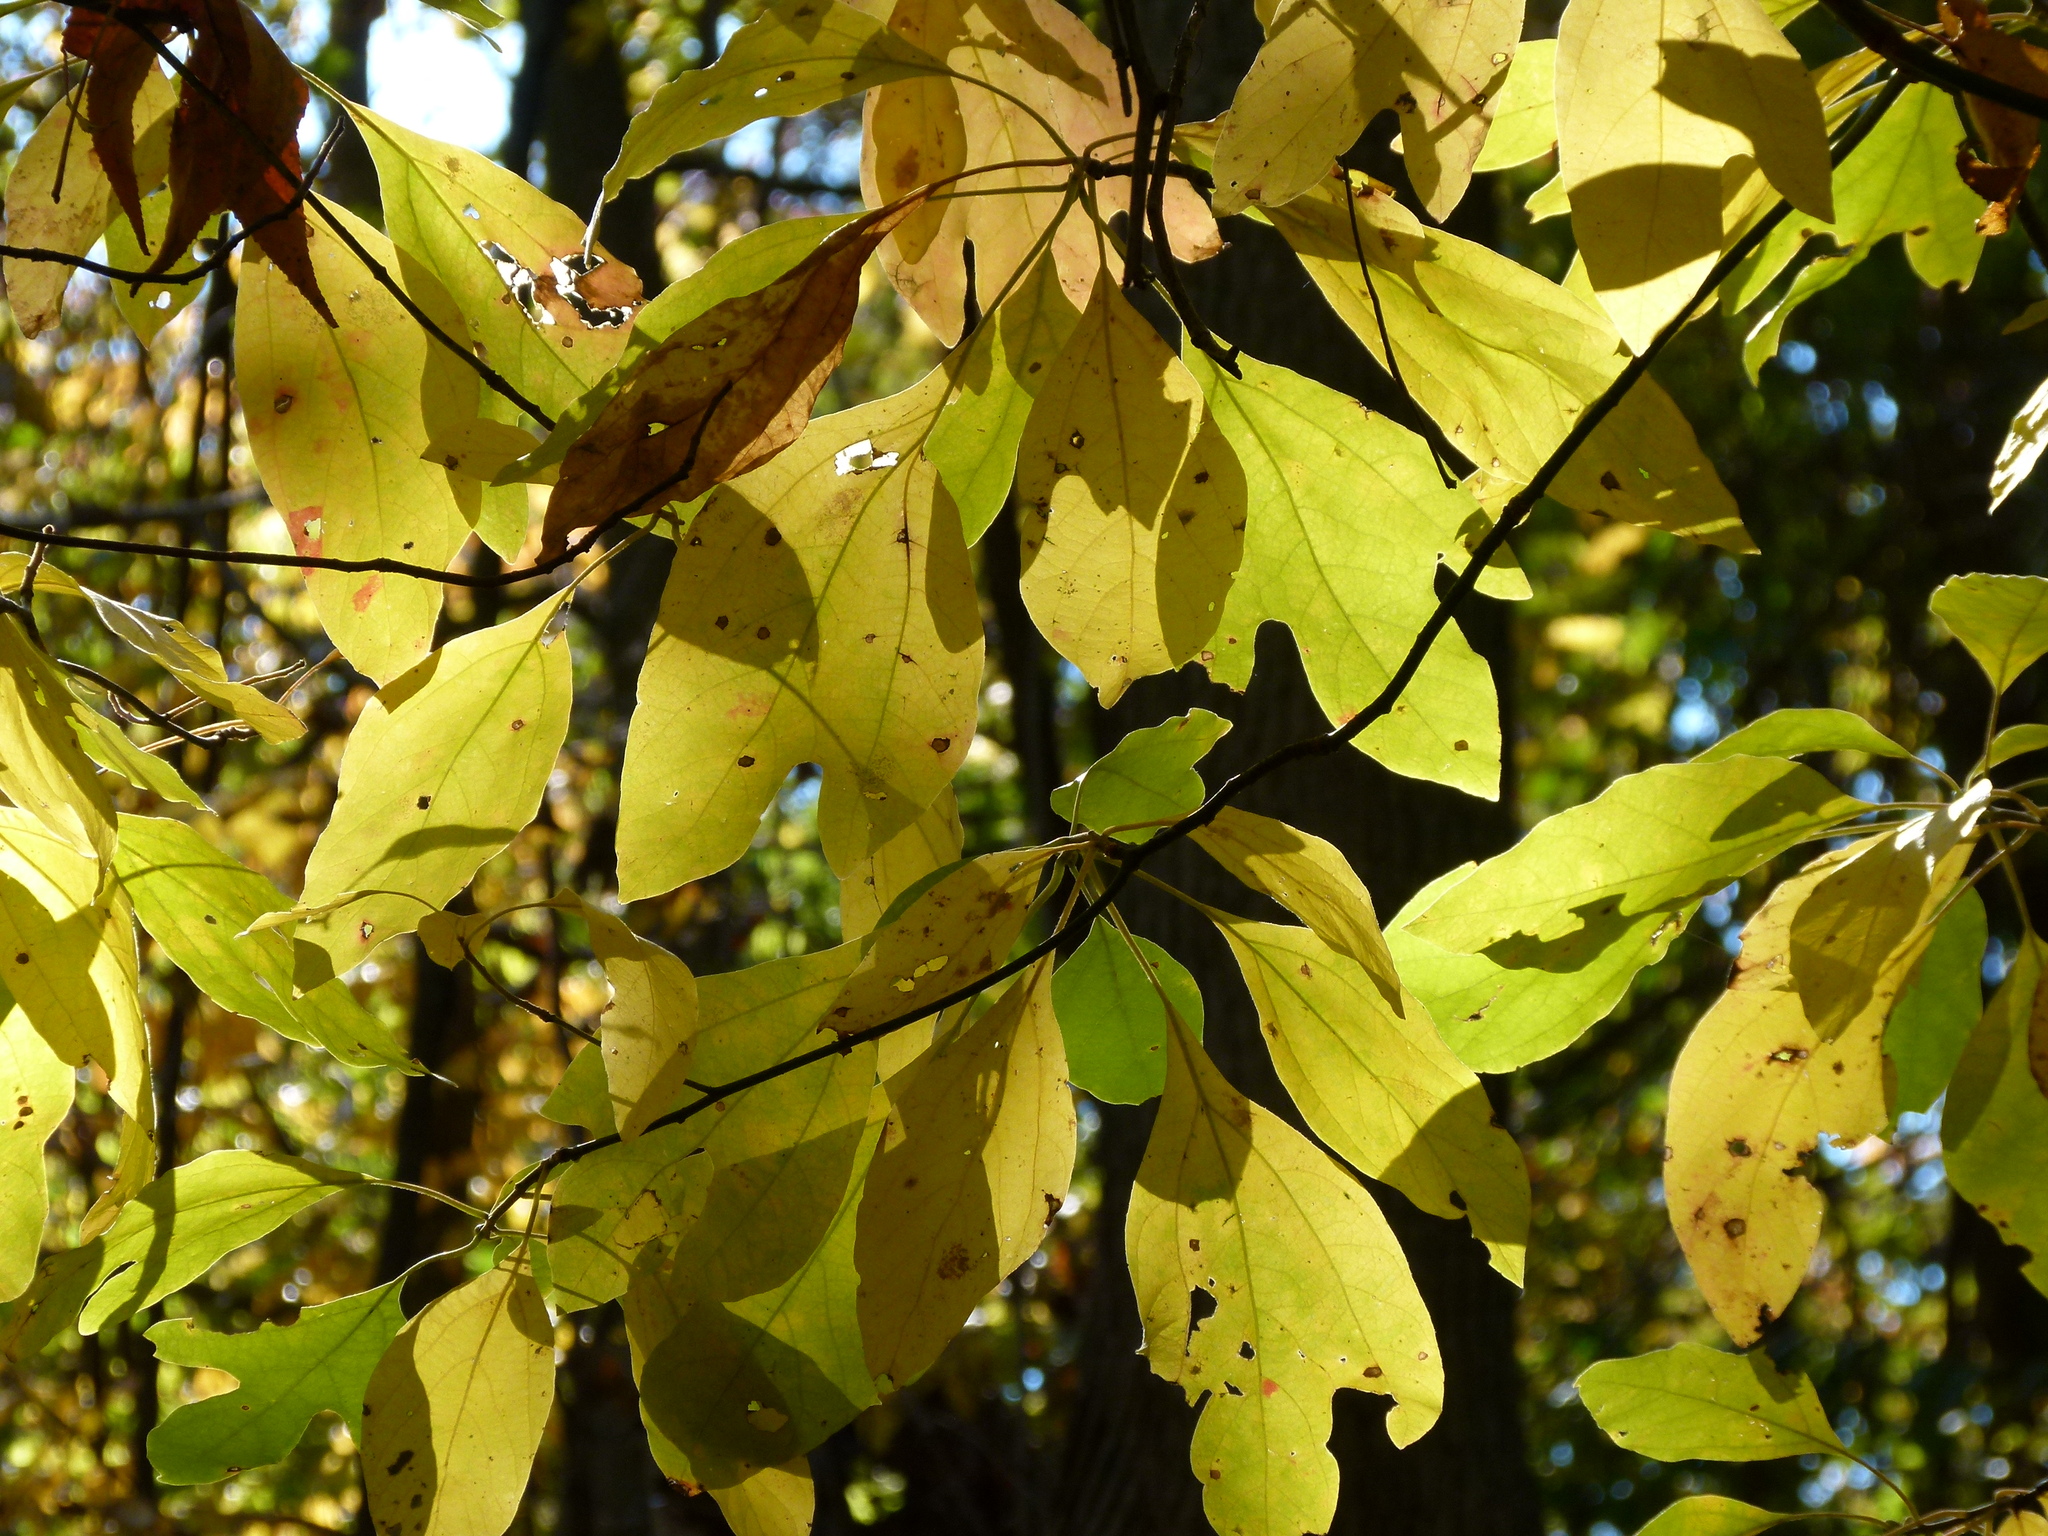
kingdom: Plantae
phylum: Tracheophyta
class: Magnoliopsida
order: Laurales
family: Lauraceae
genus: Sassafras
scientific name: Sassafras albidum
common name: Sassafras
